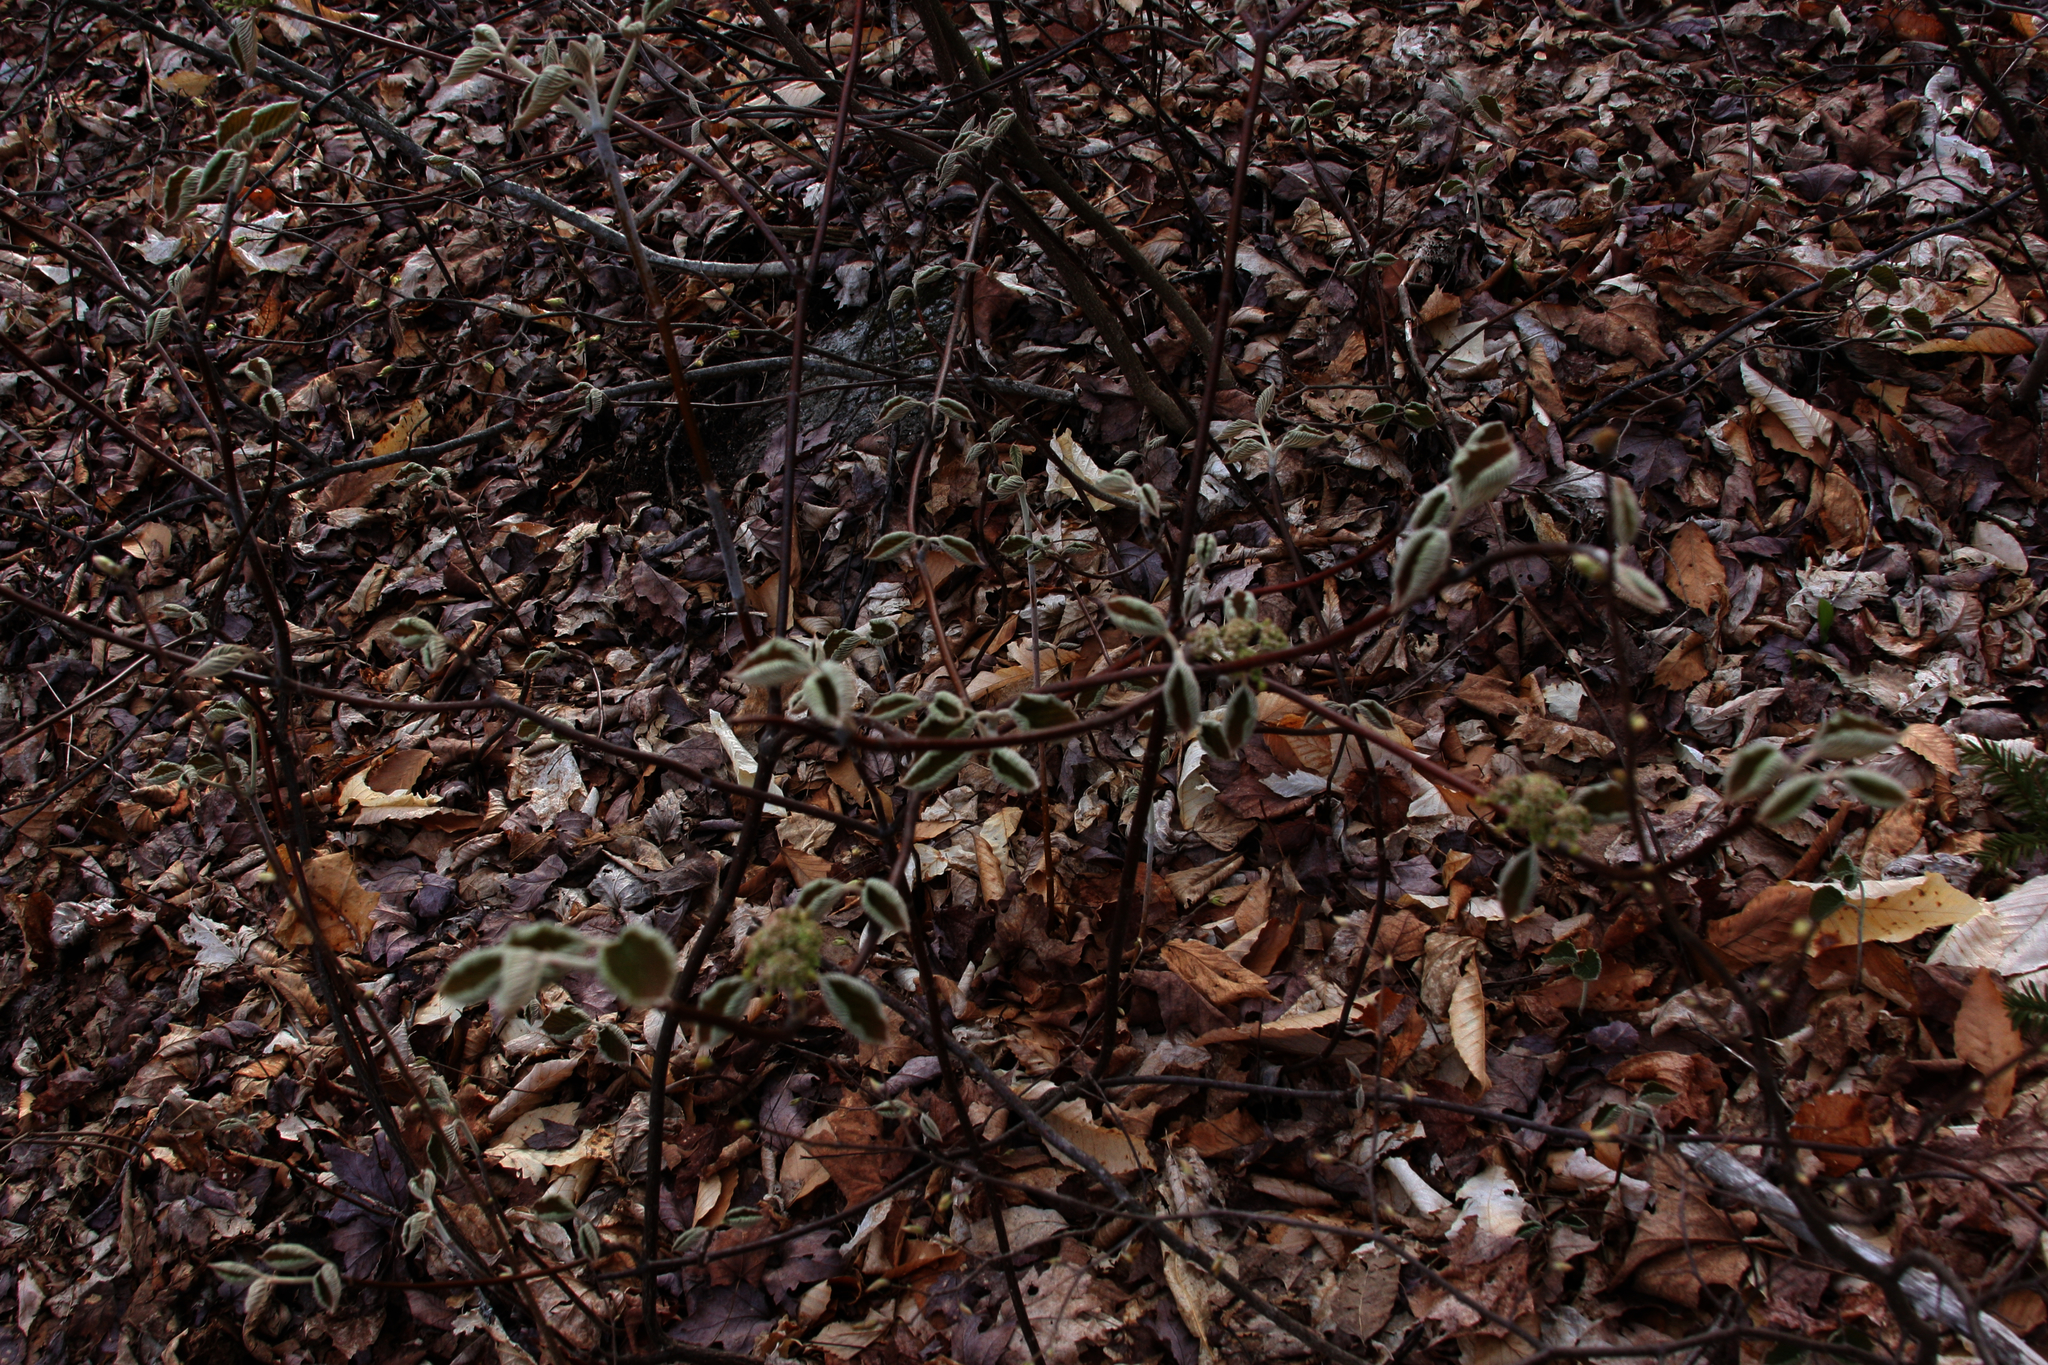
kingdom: Plantae
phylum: Tracheophyta
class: Magnoliopsida
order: Dipsacales
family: Viburnaceae
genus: Viburnum
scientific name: Viburnum lantanoides
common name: Hobblebush
